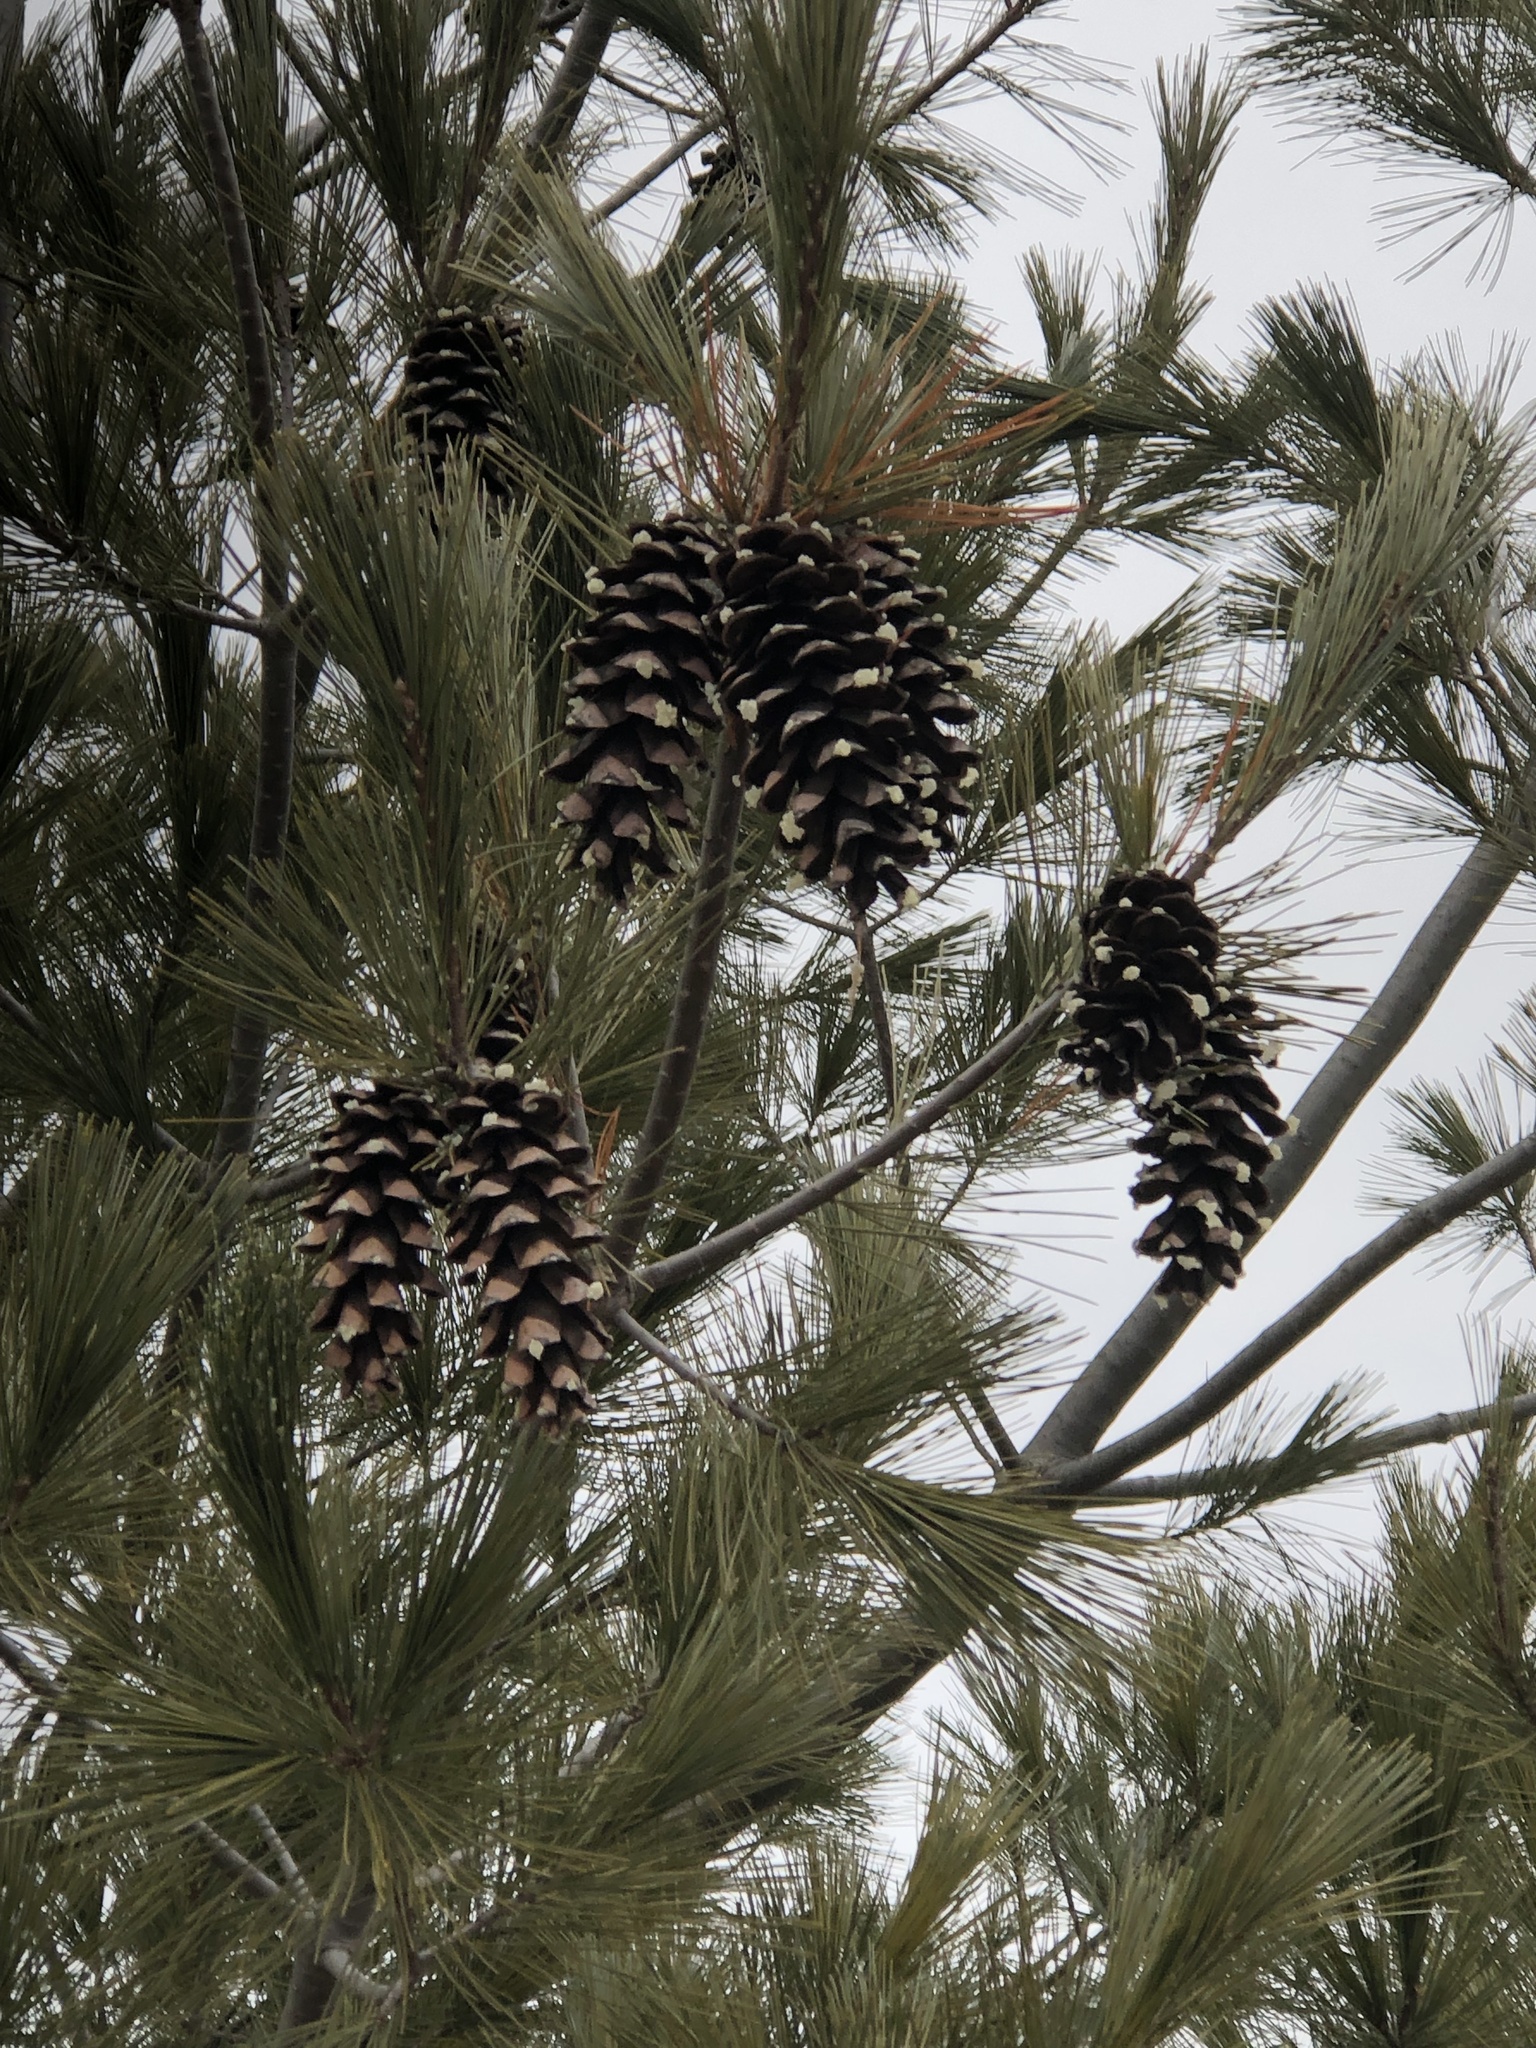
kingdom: Plantae
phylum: Tracheophyta
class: Pinopsida
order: Pinales
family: Pinaceae
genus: Pinus
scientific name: Pinus strobus
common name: Weymouth pine
